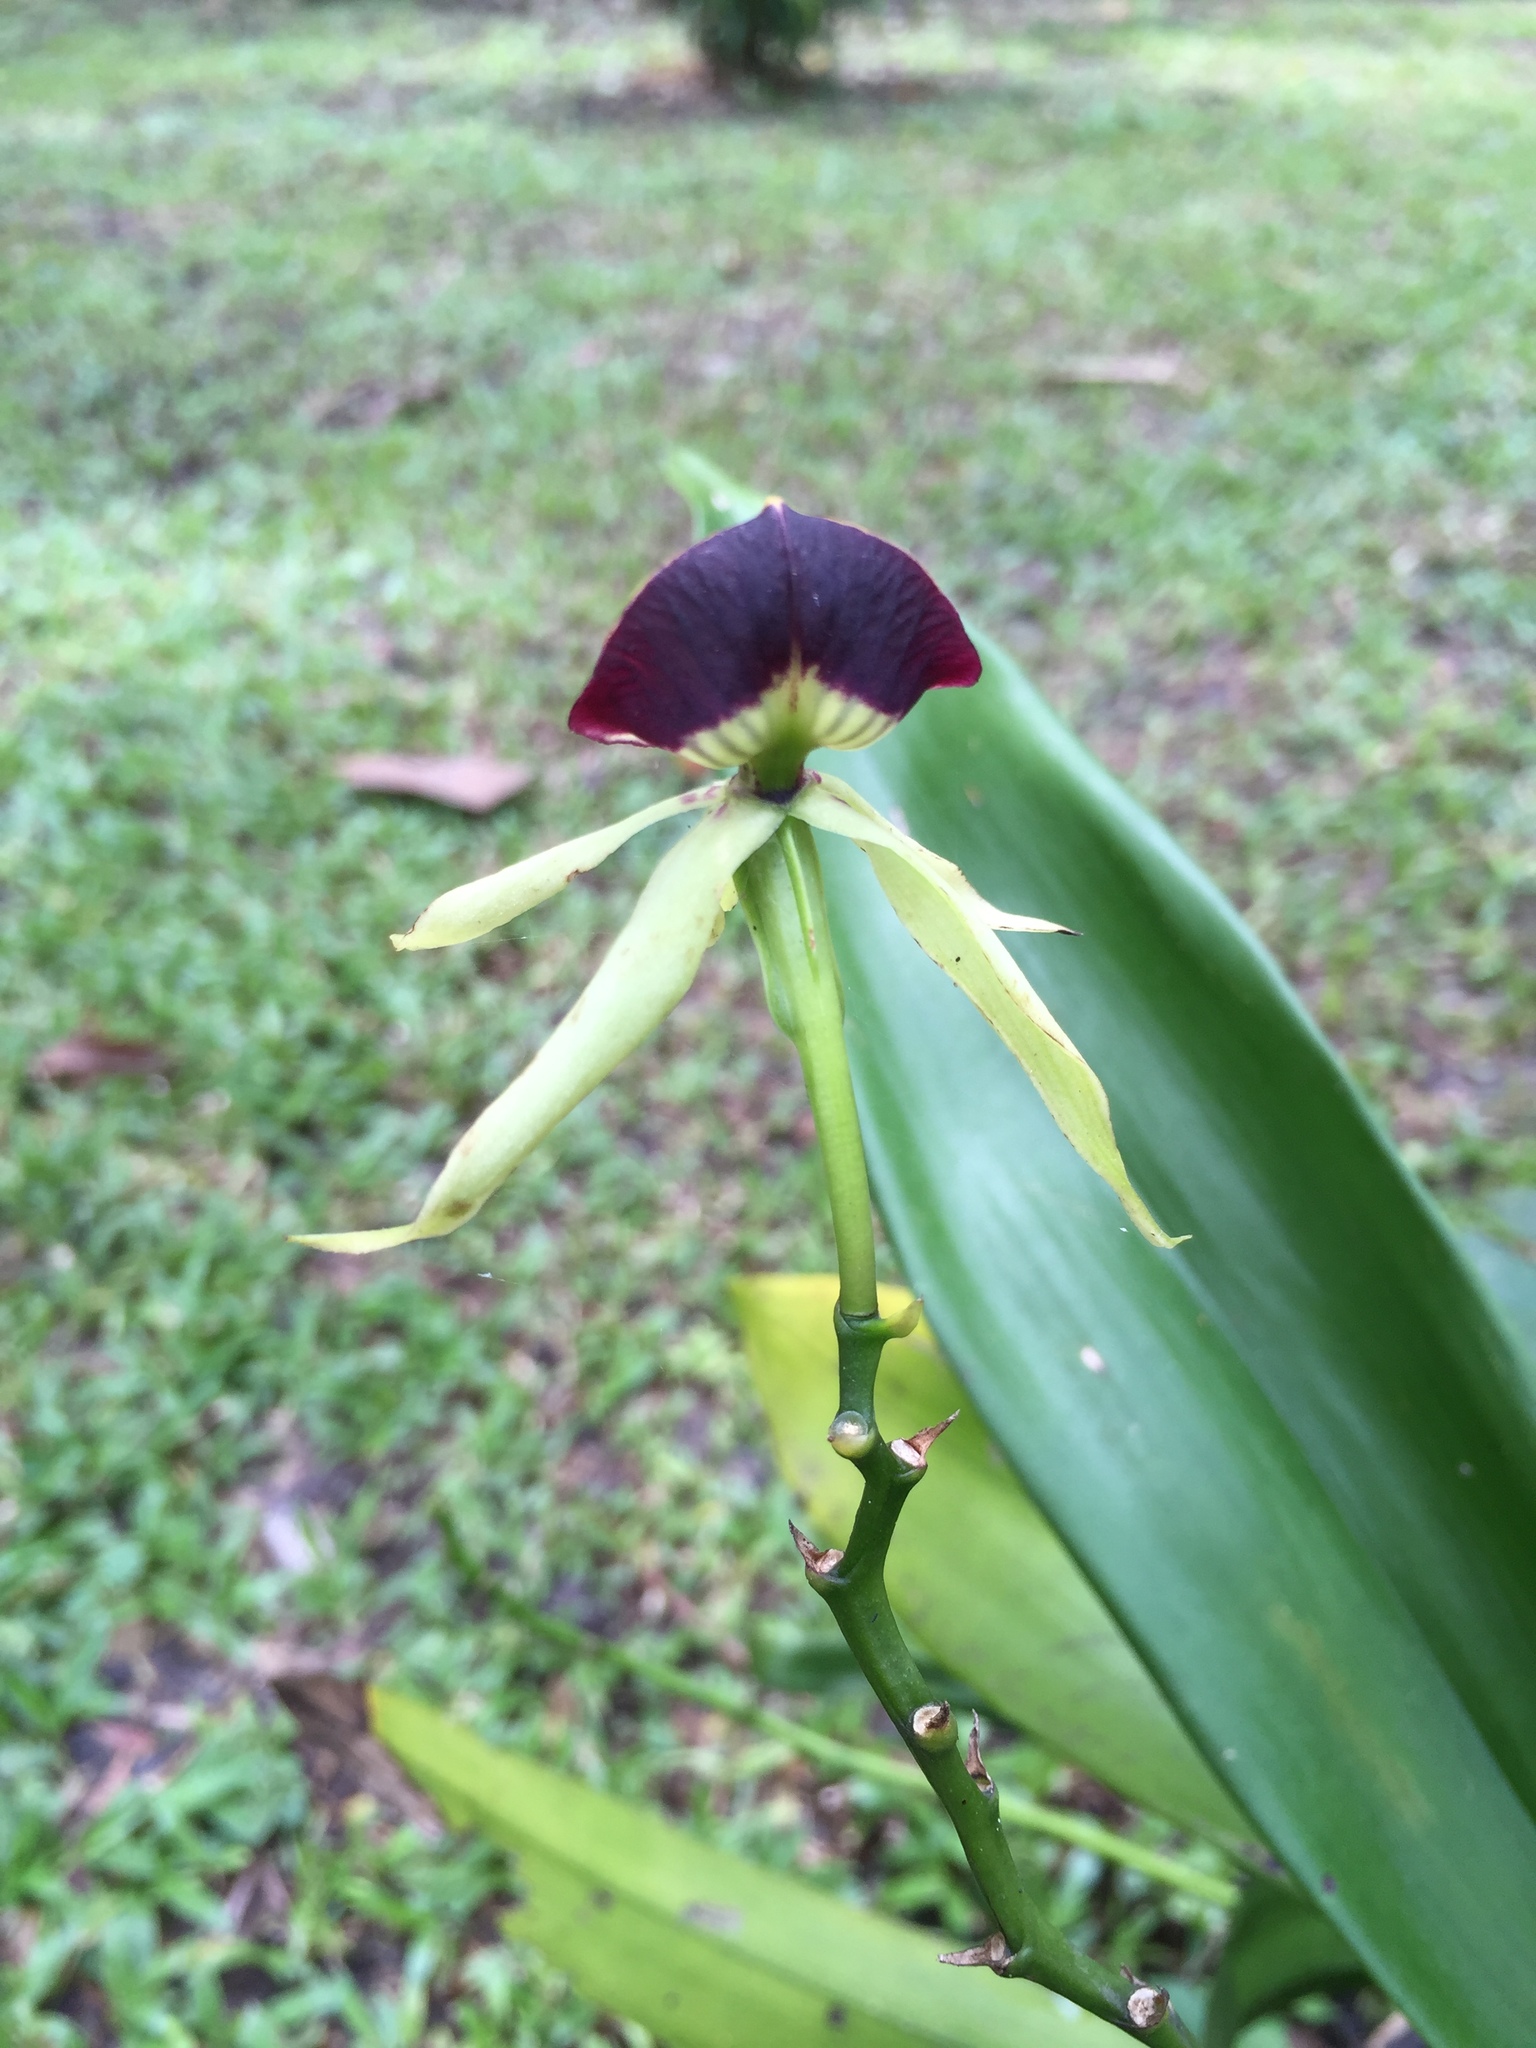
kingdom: Plantae
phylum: Tracheophyta
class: Liliopsida
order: Asparagales
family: Orchidaceae
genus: Prosthechea
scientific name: Prosthechea cochleata
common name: Clamshell orchid
